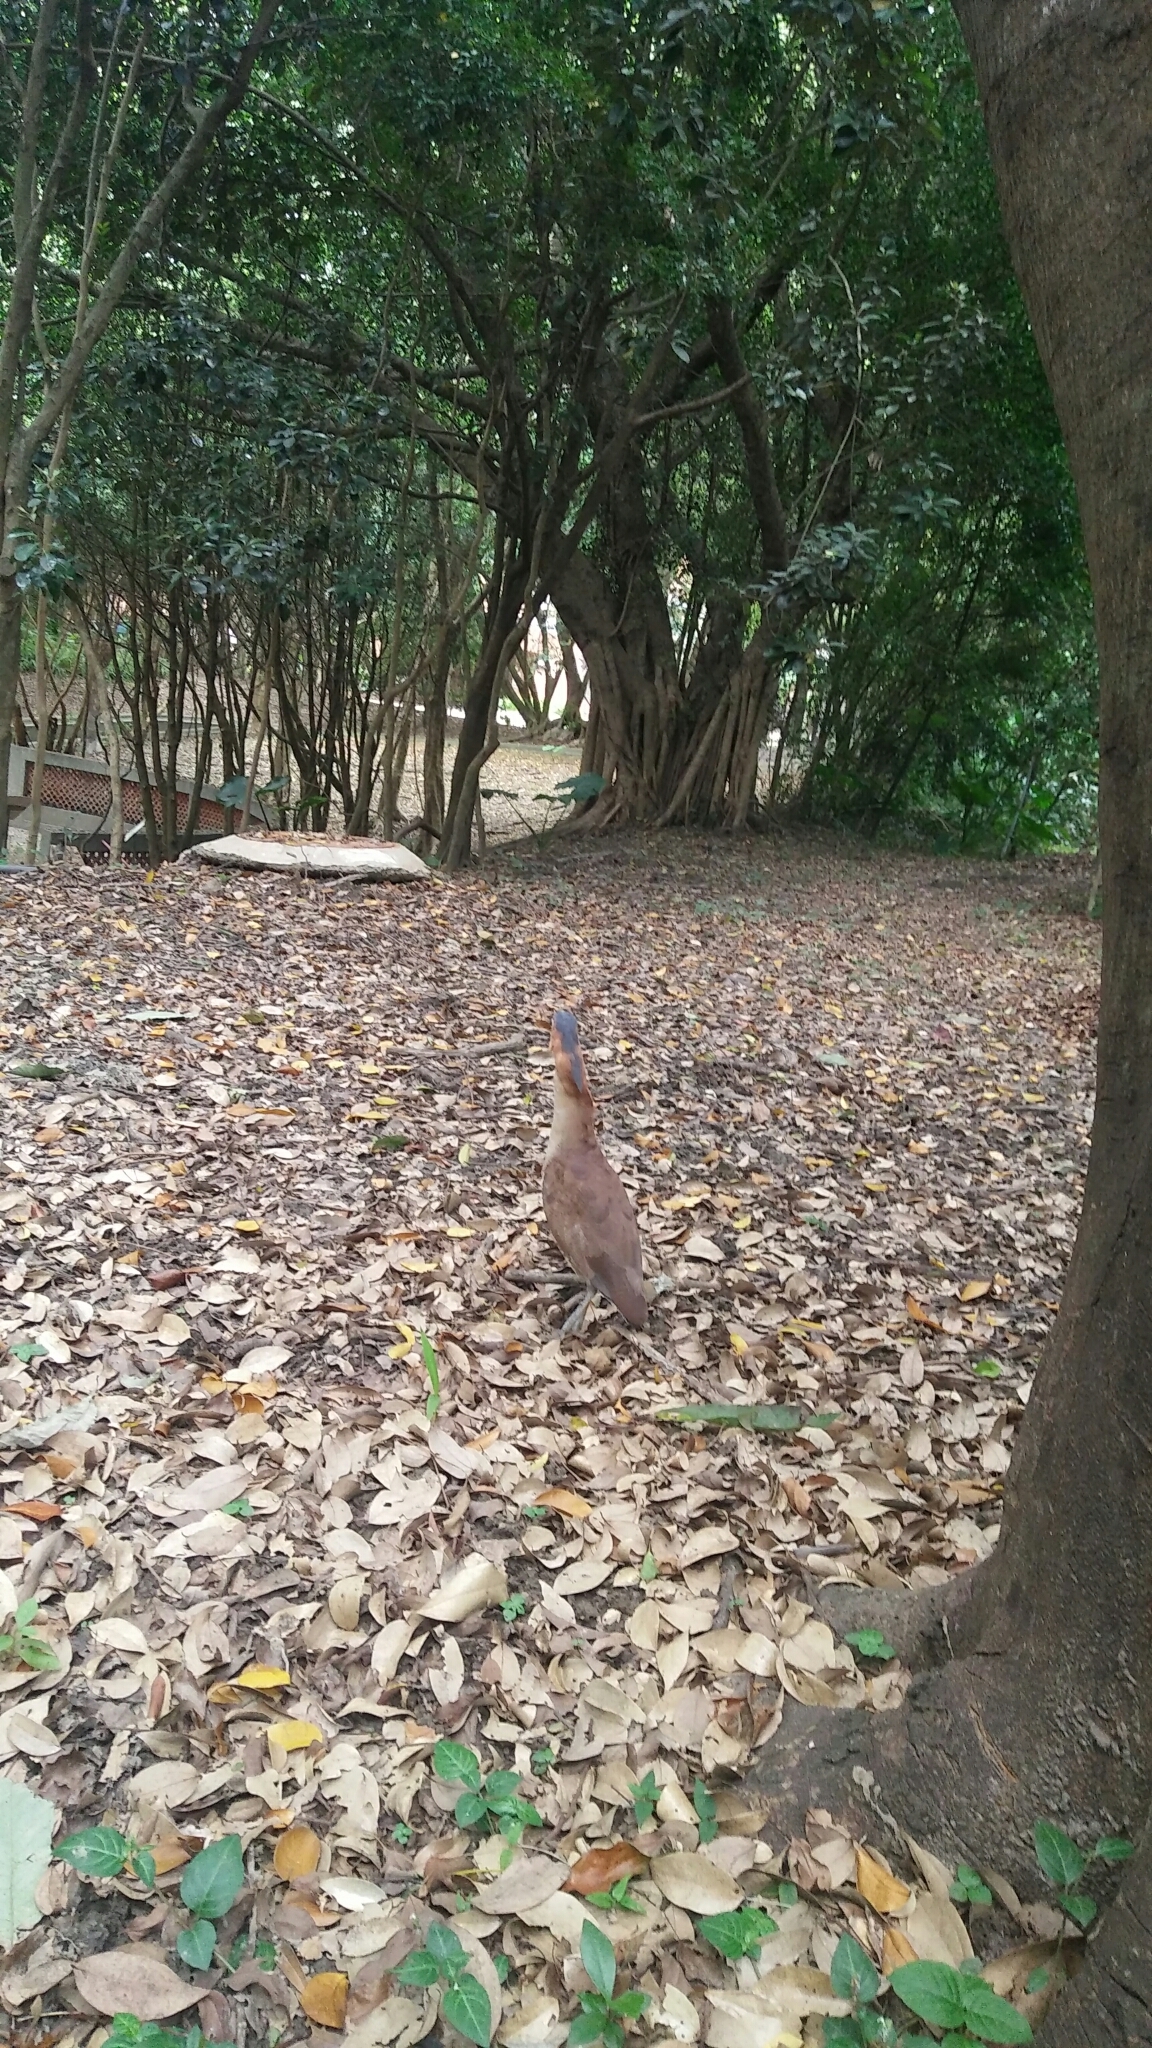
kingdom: Animalia
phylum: Chordata
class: Aves
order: Pelecaniformes
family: Ardeidae
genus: Gorsachius
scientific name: Gorsachius melanolophus
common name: Malayan night heron
